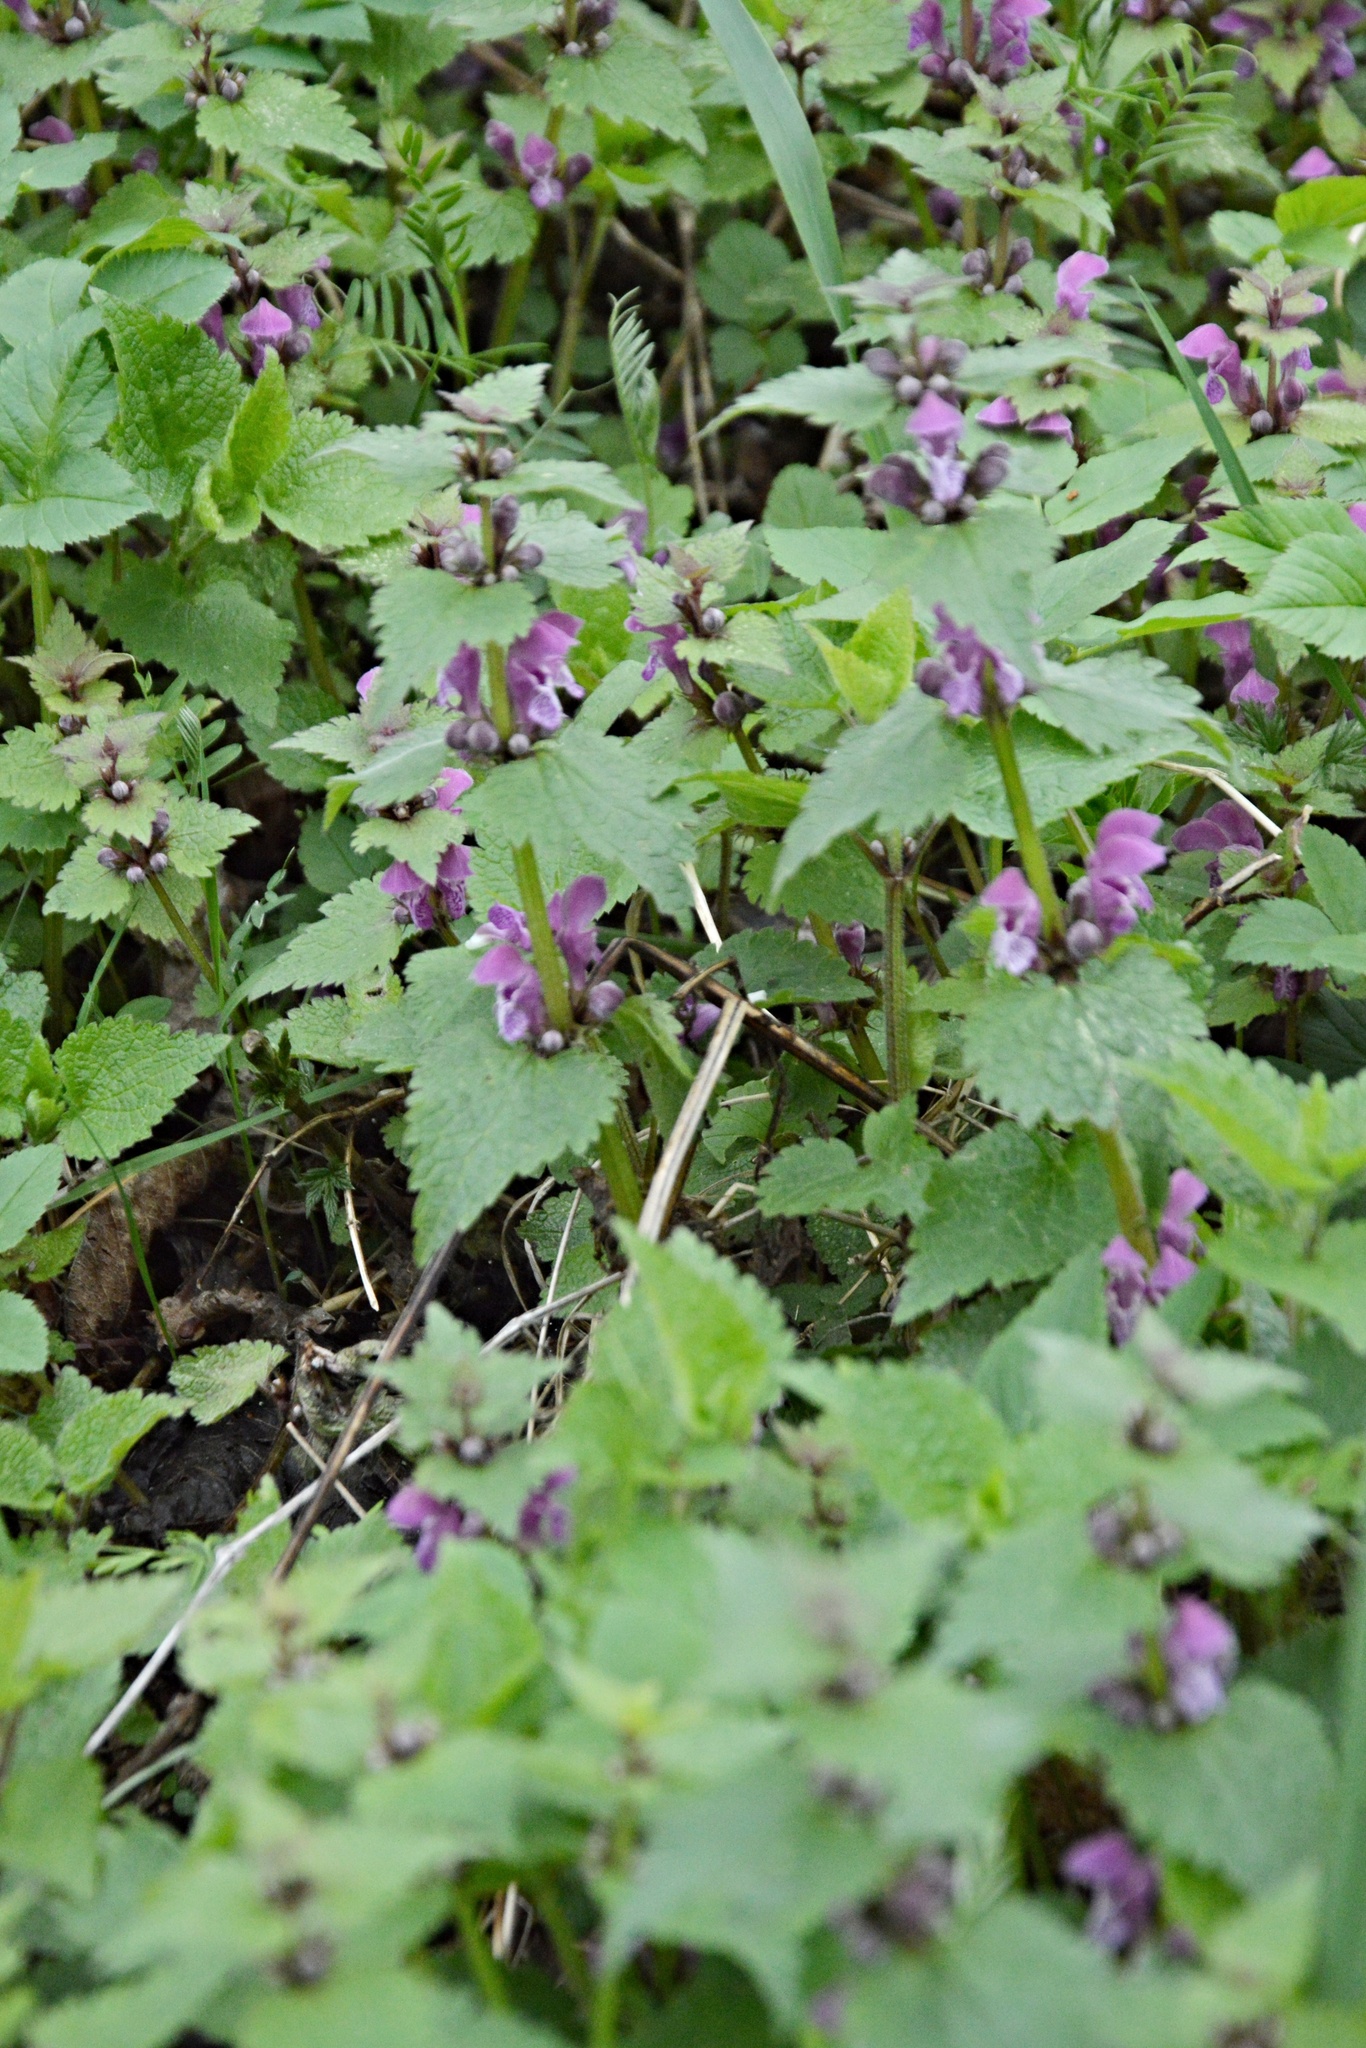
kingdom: Plantae
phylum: Tracheophyta
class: Magnoliopsida
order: Lamiales
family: Lamiaceae
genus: Lamium
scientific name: Lamium maculatum
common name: Spotted dead-nettle
